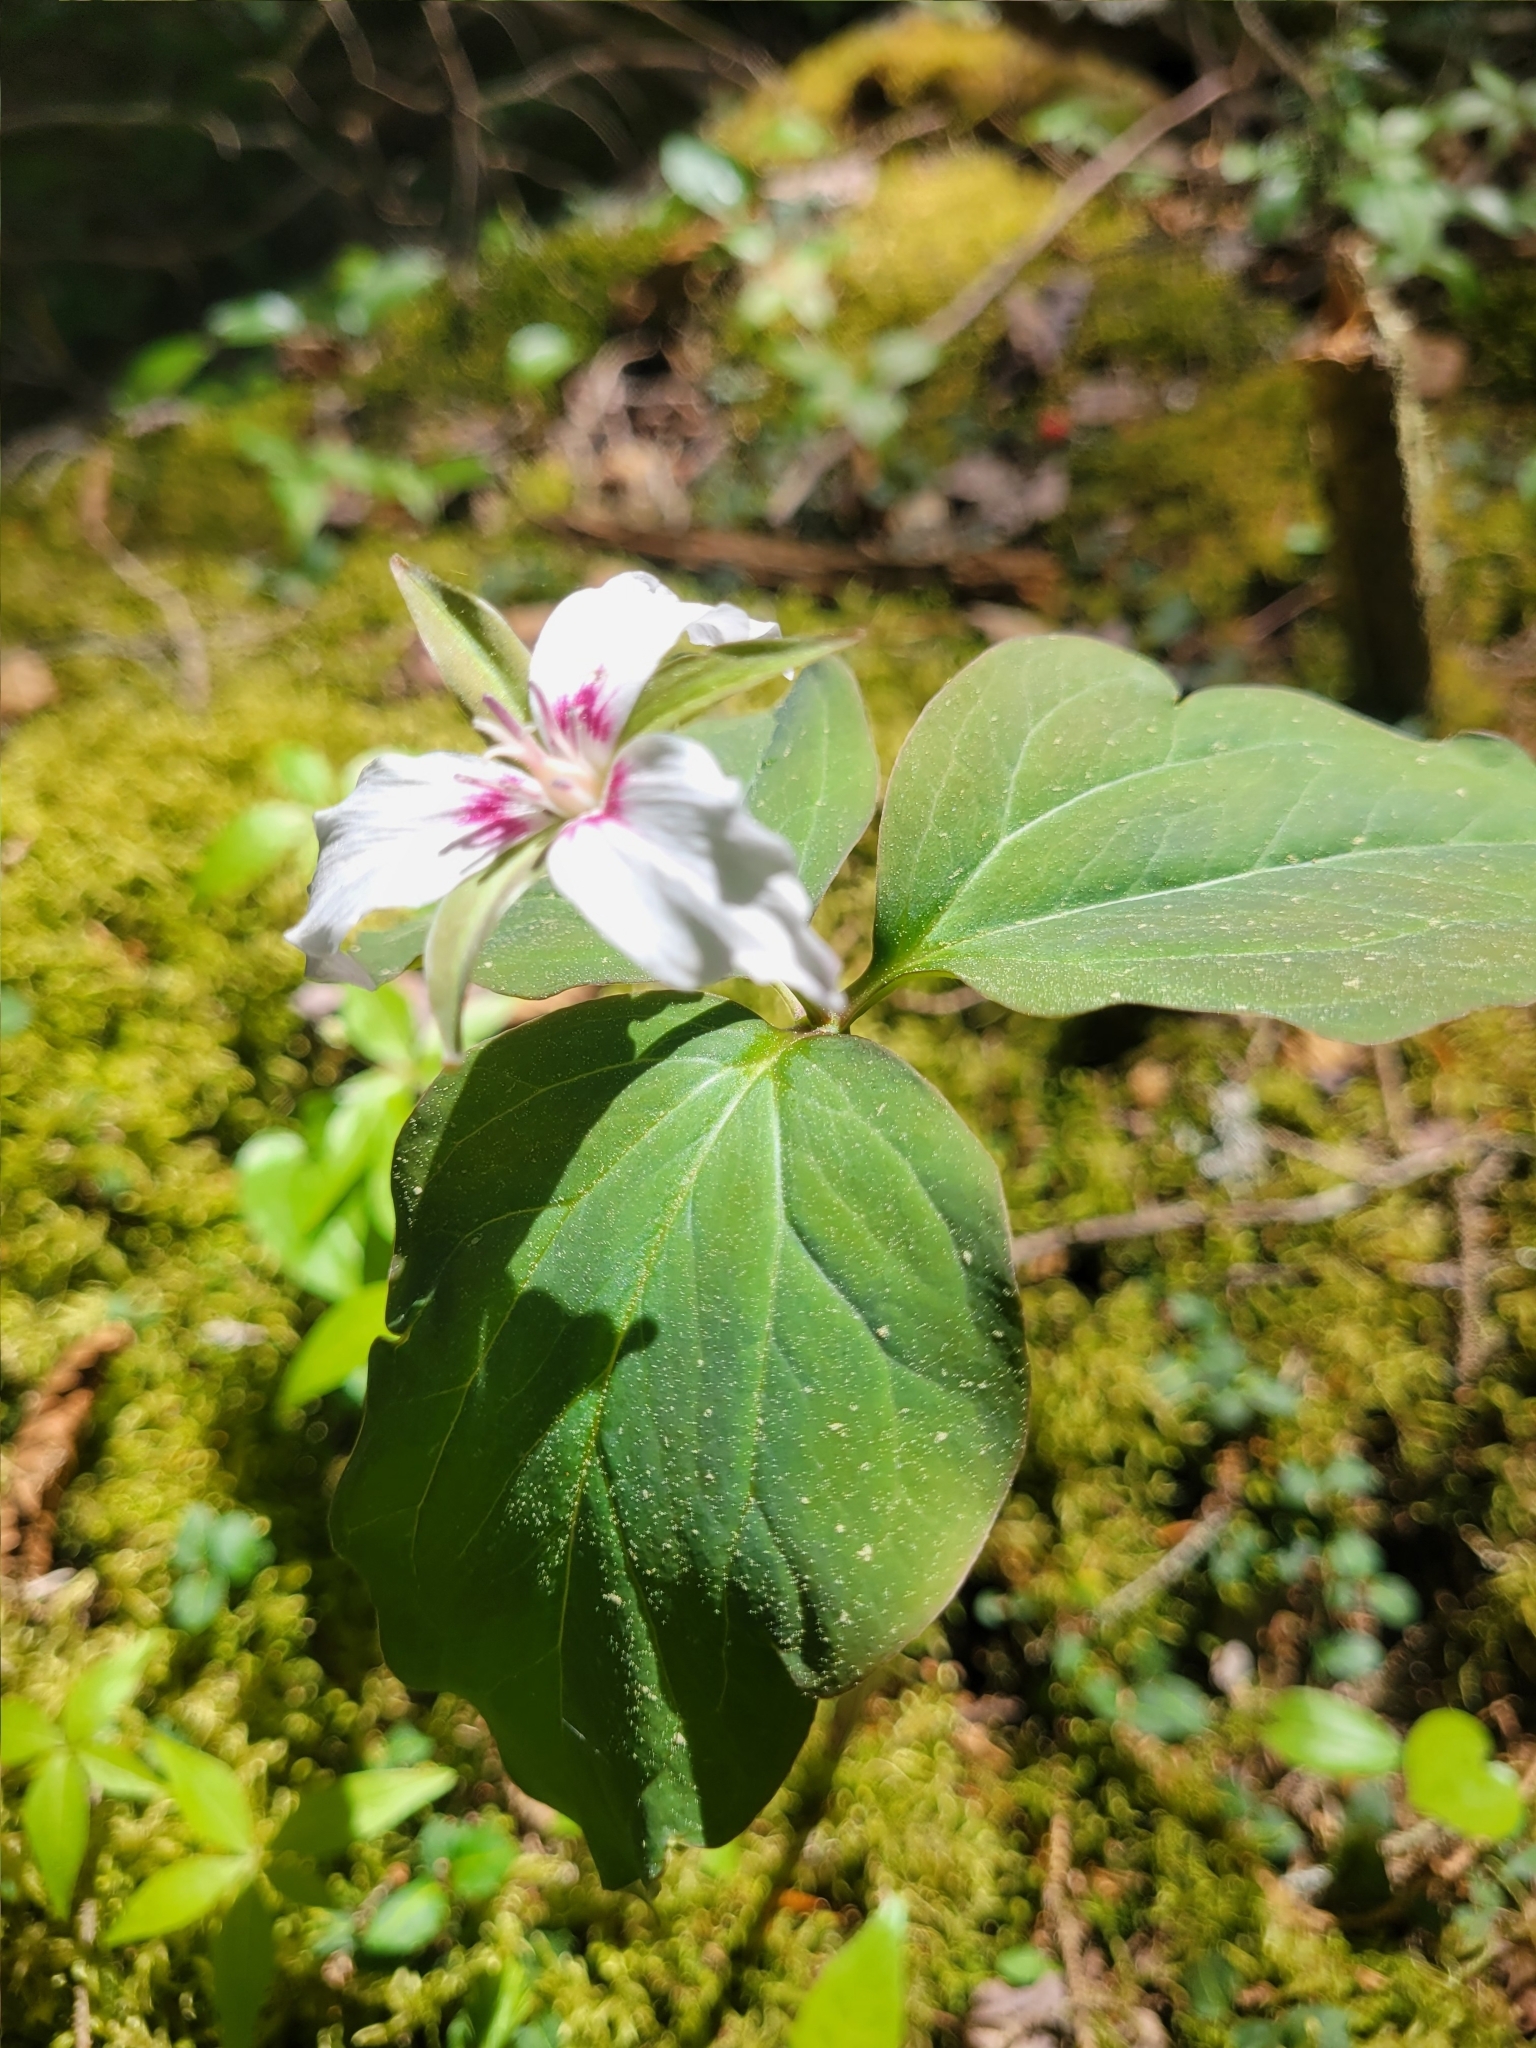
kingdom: Plantae
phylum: Tracheophyta
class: Liliopsida
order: Liliales
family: Melanthiaceae
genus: Trillium
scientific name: Trillium undulatum
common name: Paint trillium
